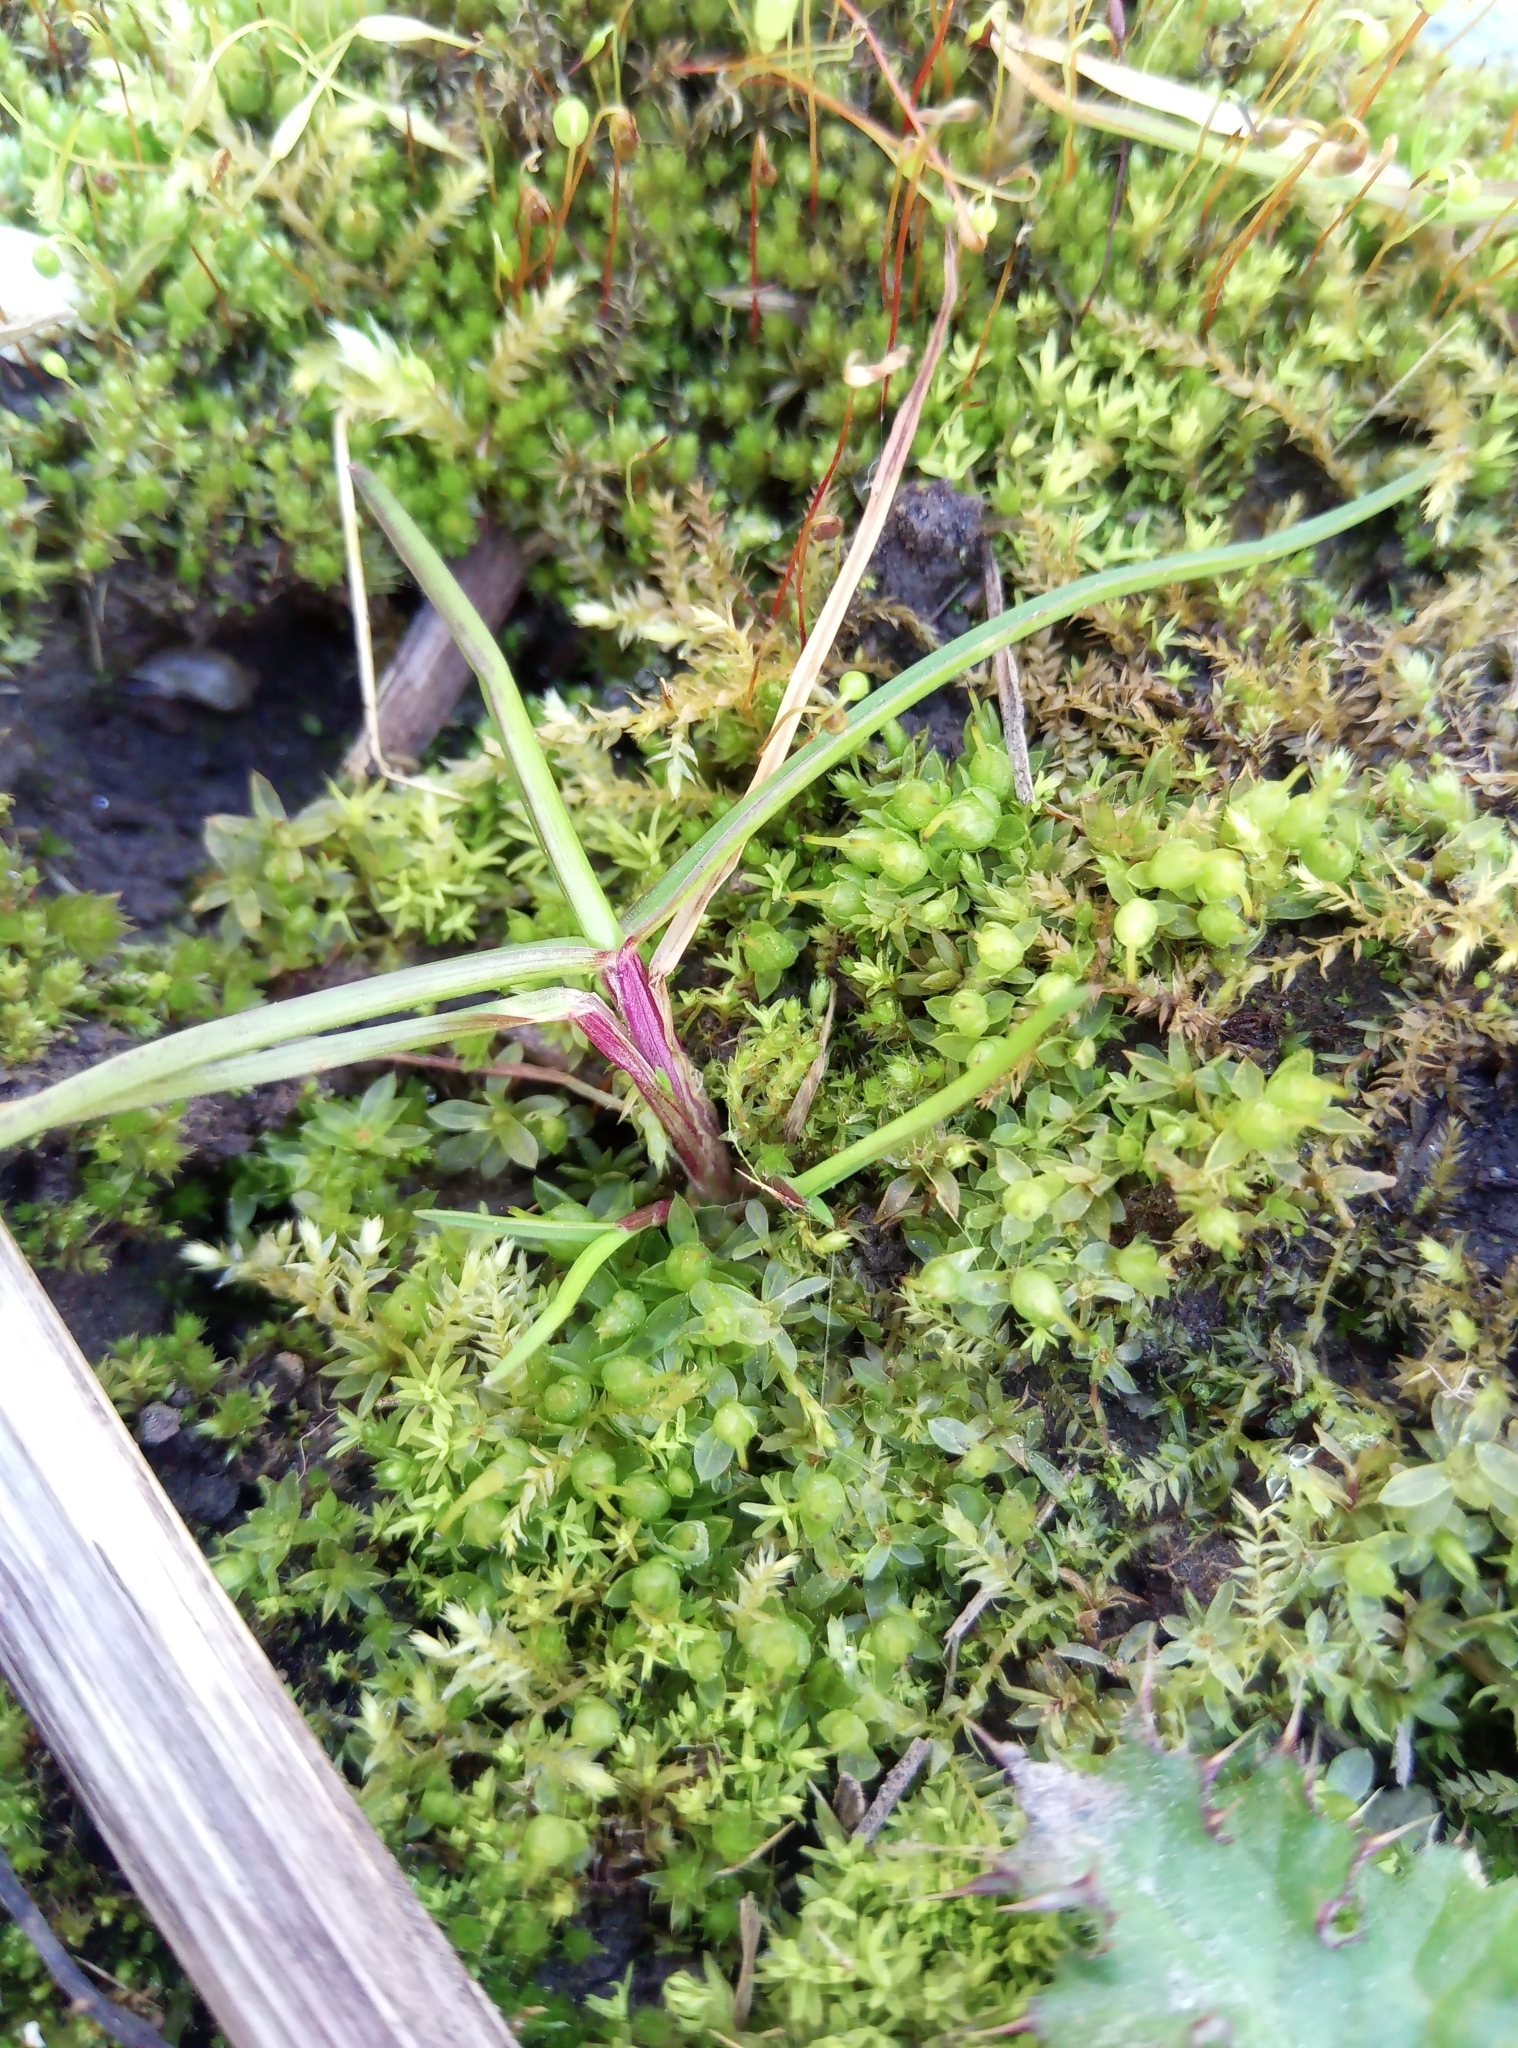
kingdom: Plantae
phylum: Bryophyta
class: Bryopsida
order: Funariales
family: Funariaceae
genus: Funaria
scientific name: Funaria hygrometrica
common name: Common cord moss
